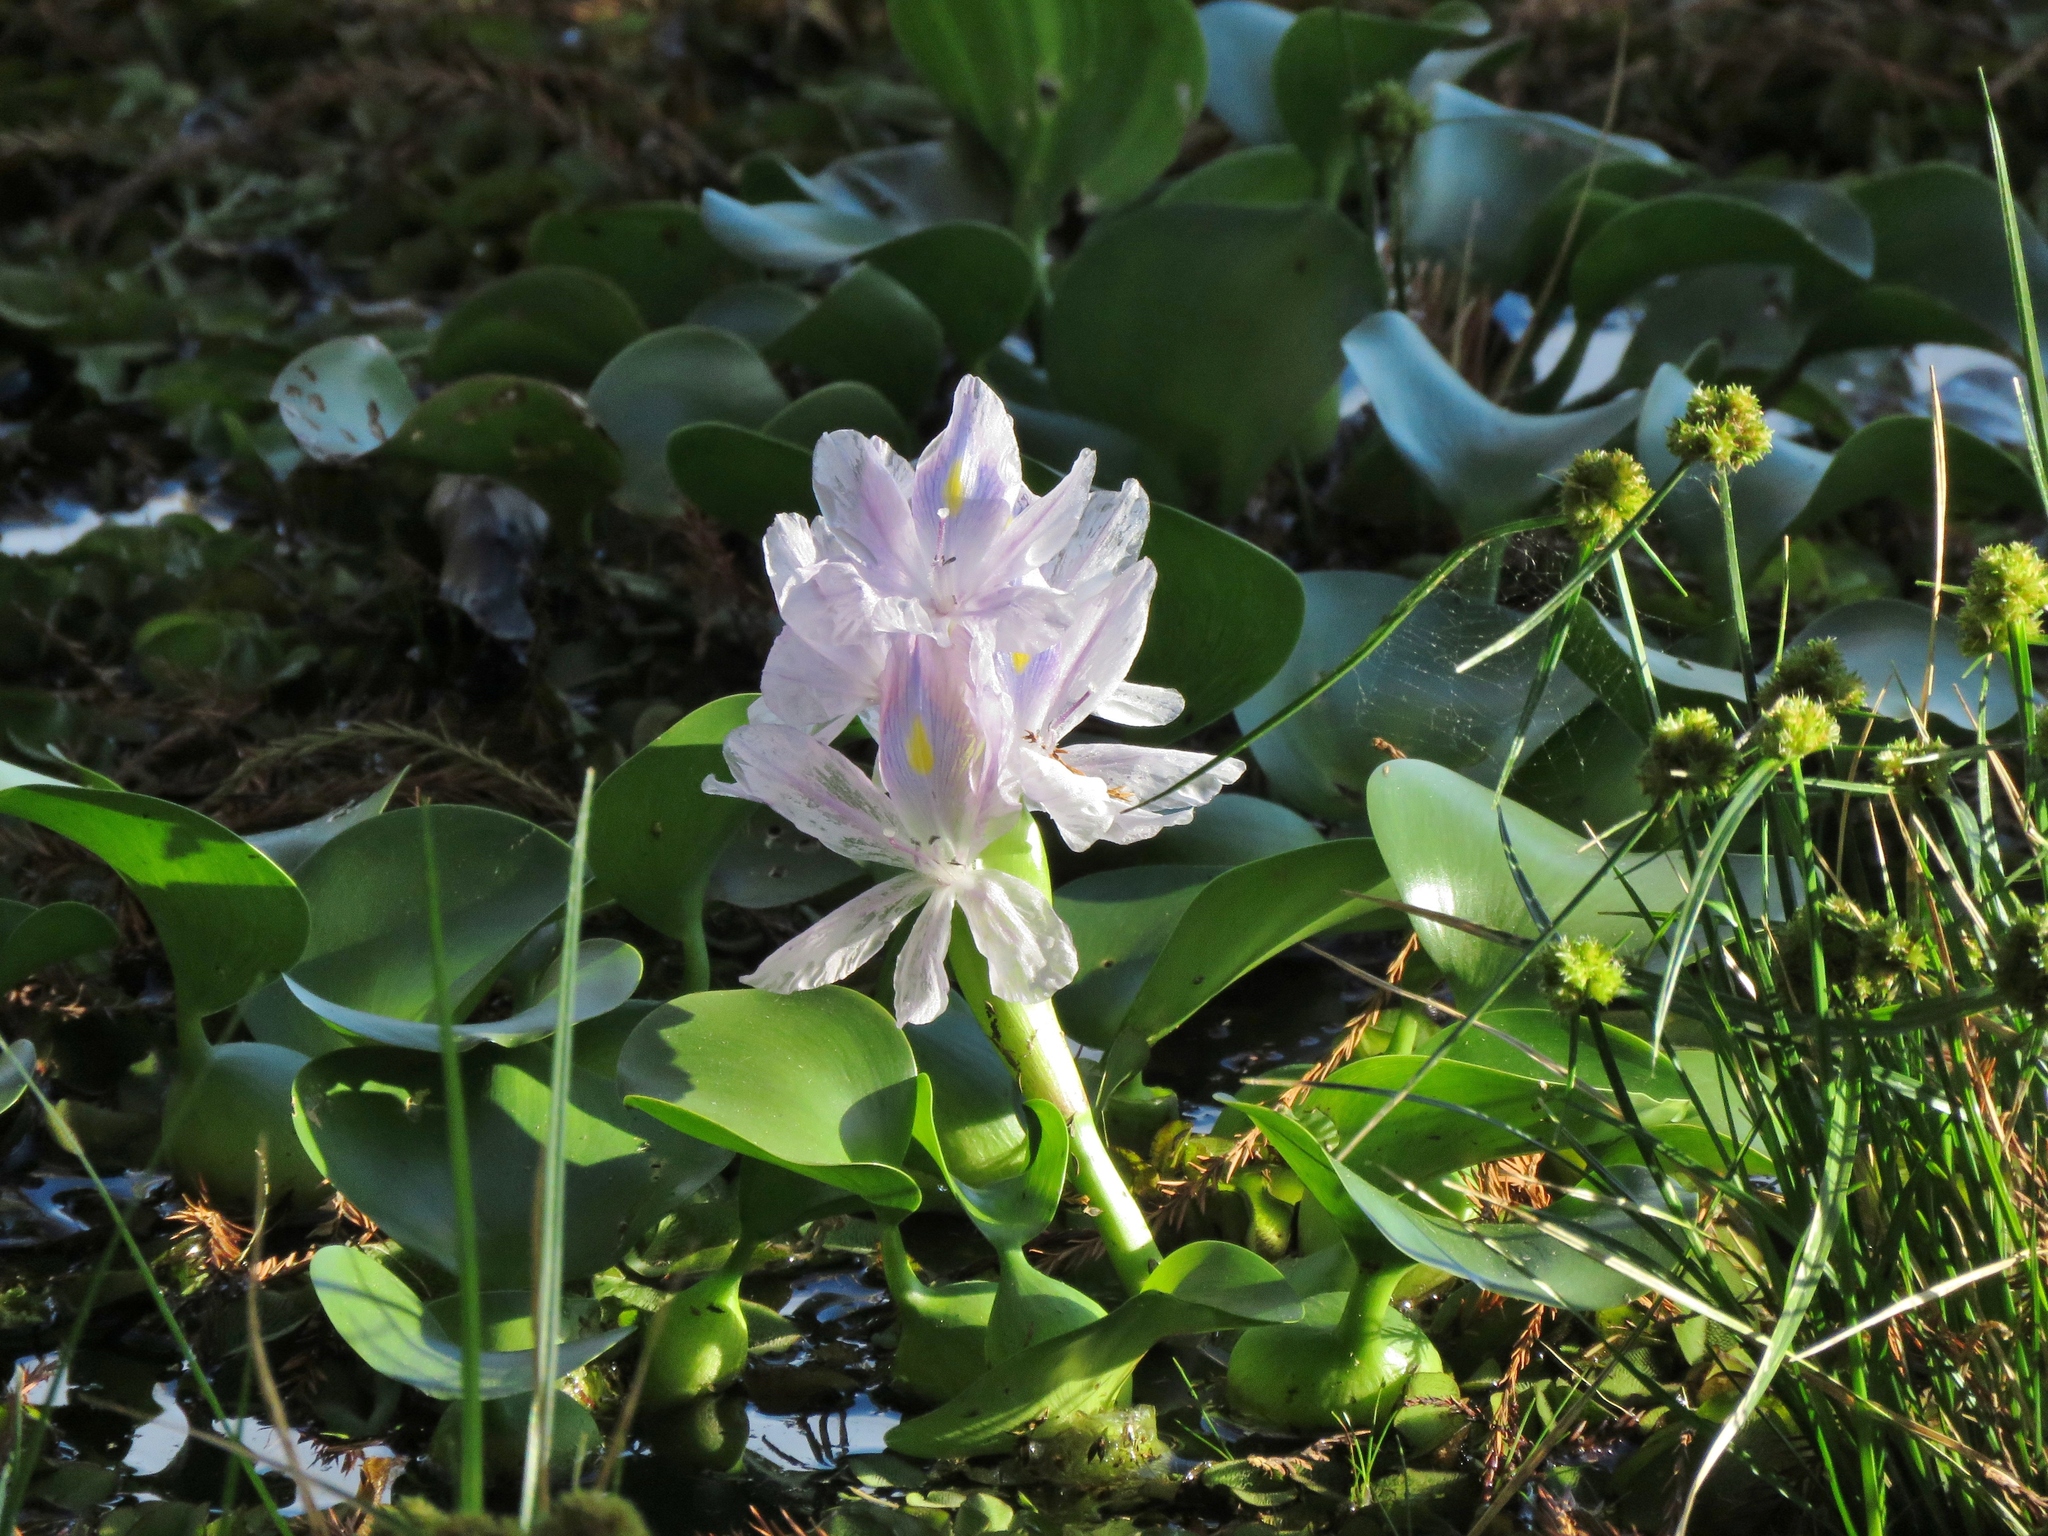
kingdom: Plantae
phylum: Tracheophyta
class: Liliopsida
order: Commelinales
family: Pontederiaceae
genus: Pontederia
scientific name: Pontederia crassipes
